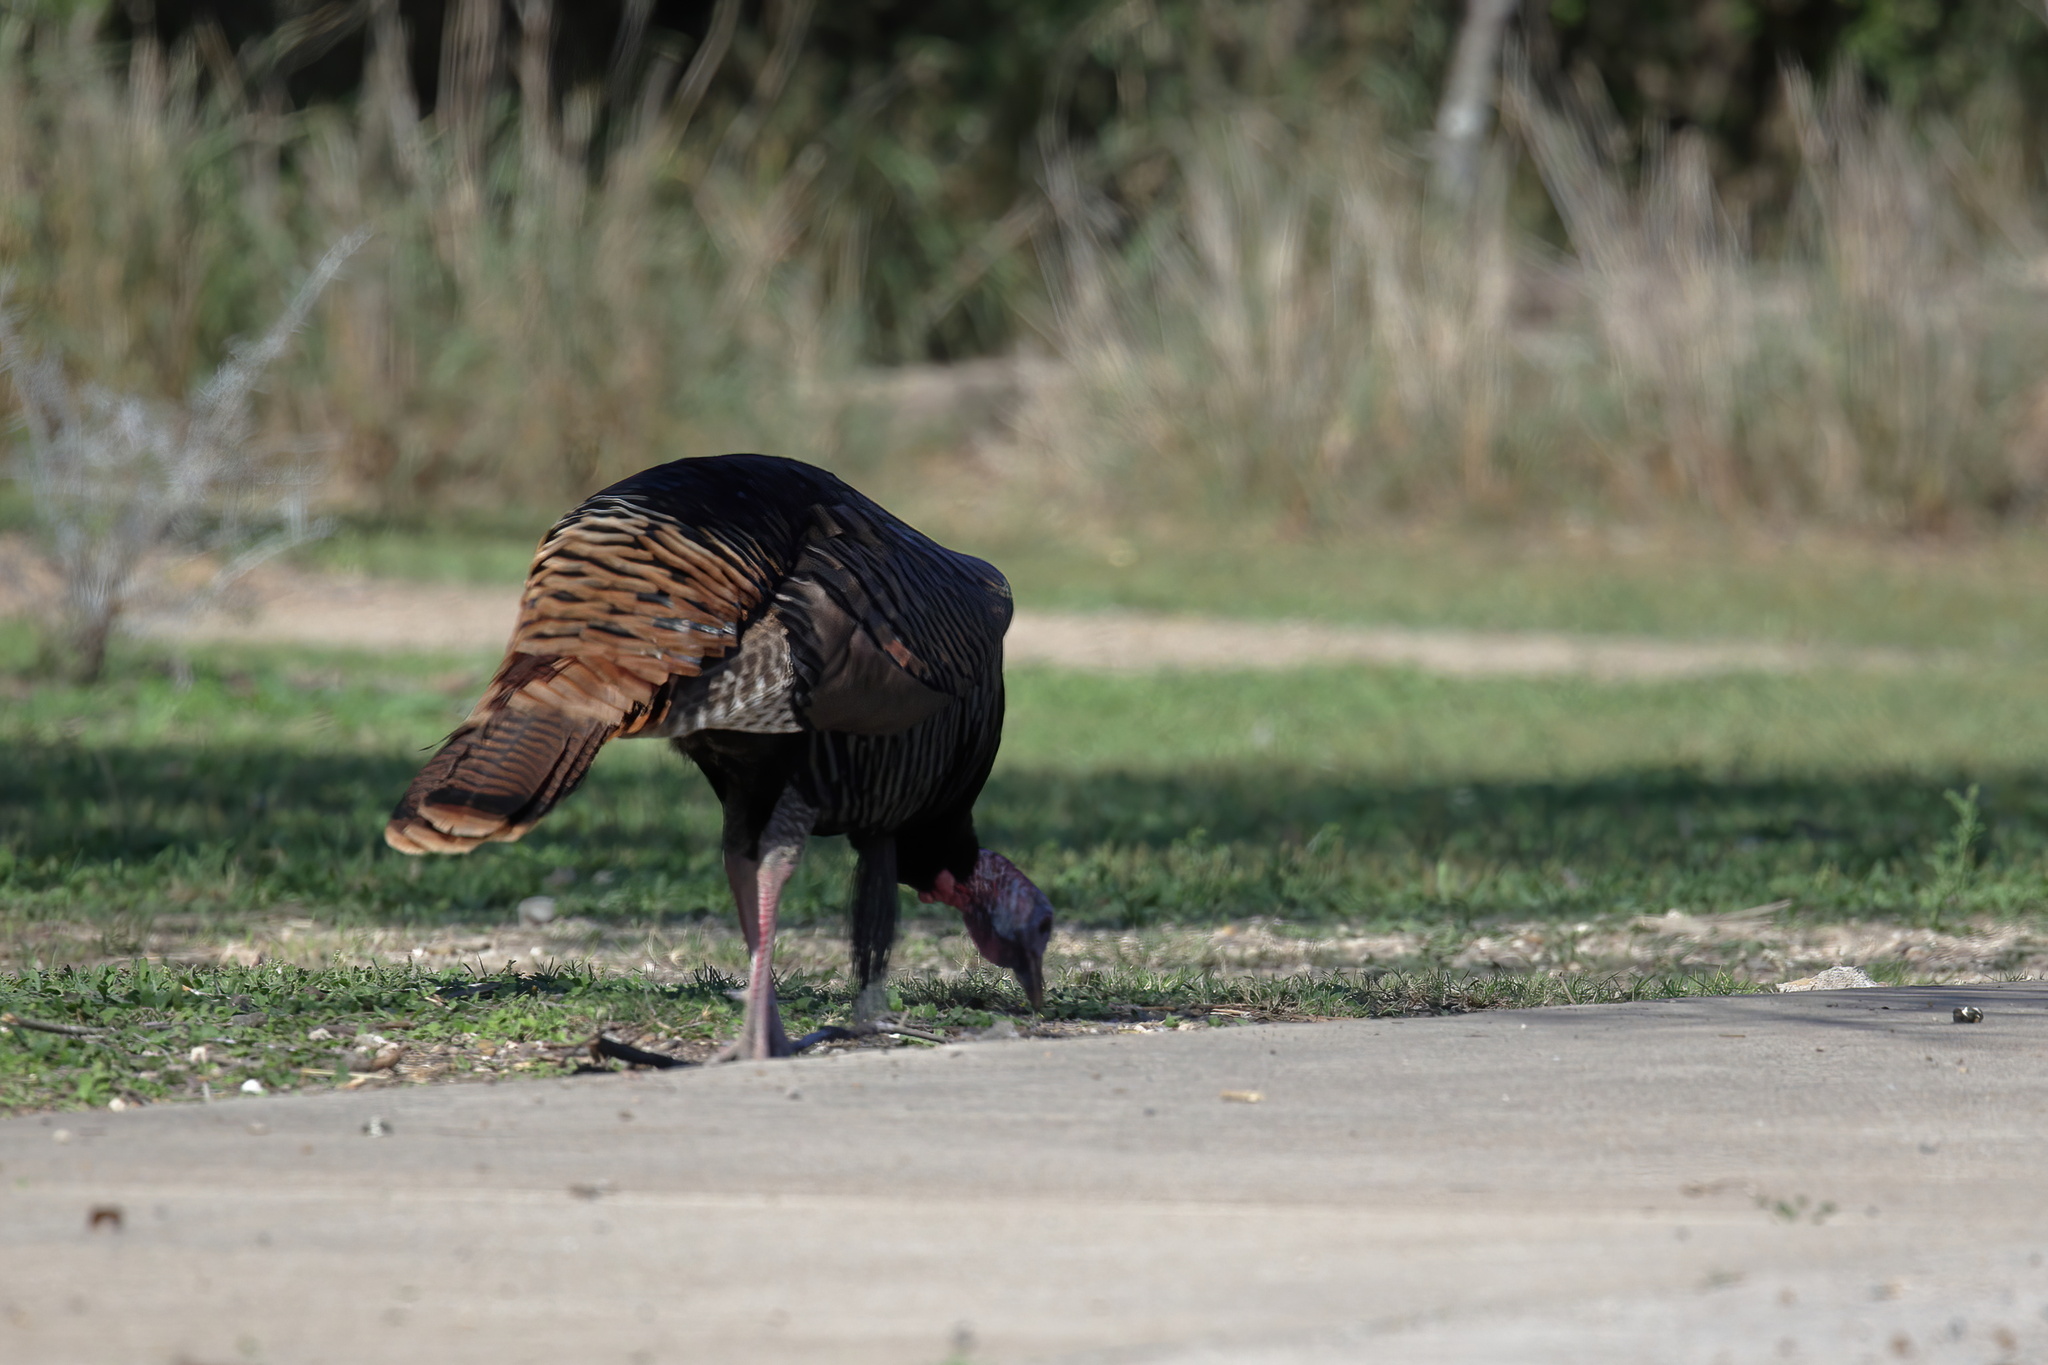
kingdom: Animalia
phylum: Chordata
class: Aves
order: Galliformes
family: Phasianidae
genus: Meleagris
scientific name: Meleagris gallopavo
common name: Wild turkey
